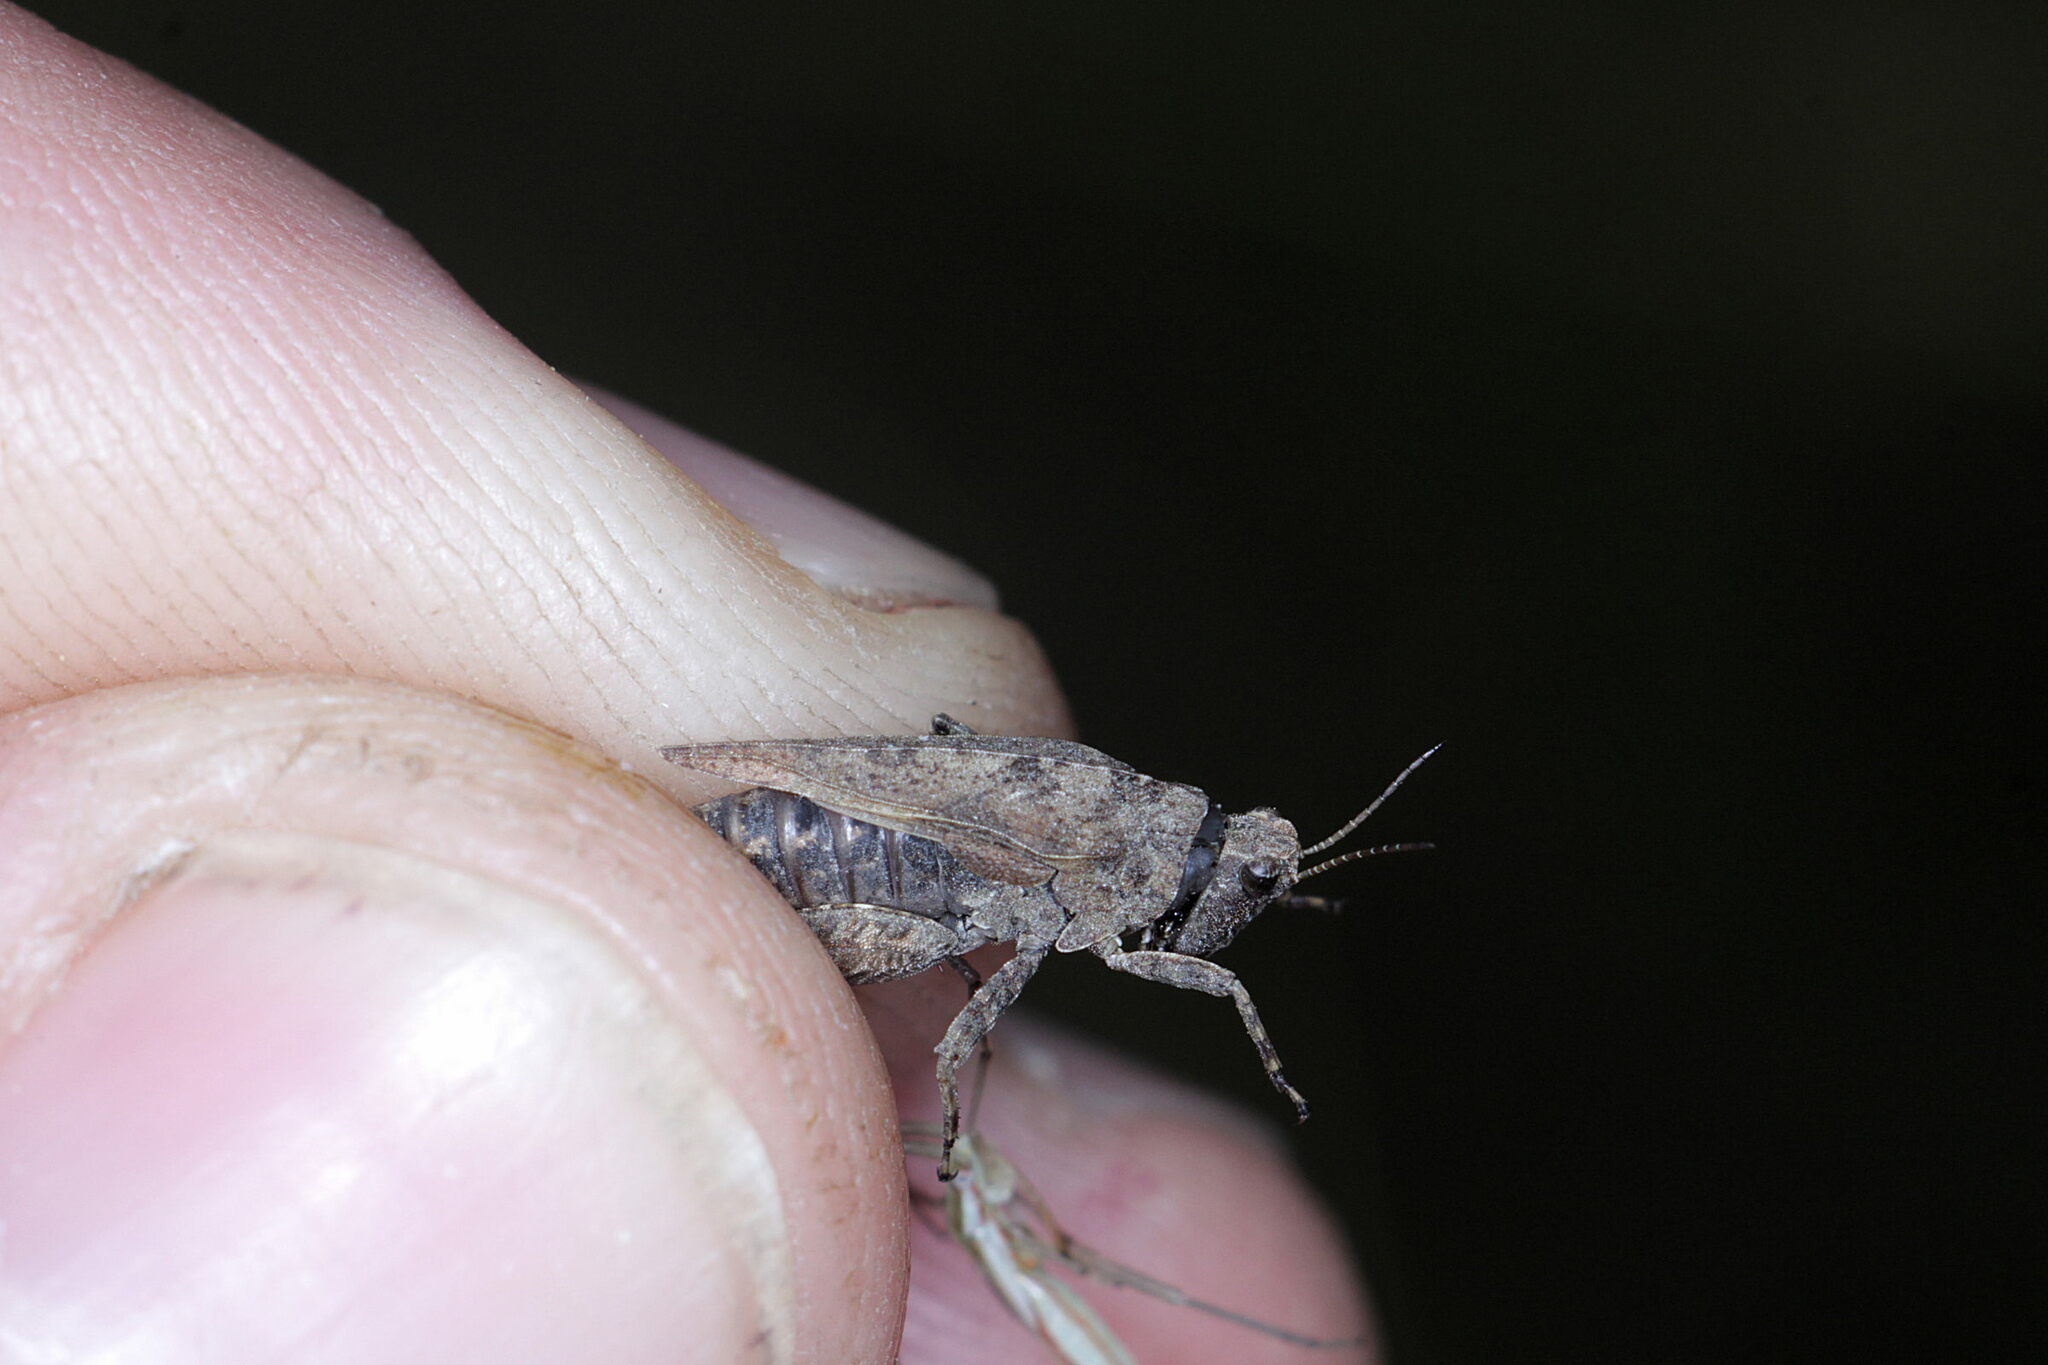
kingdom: Animalia
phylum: Arthropoda
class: Insecta
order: Orthoptera
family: Tetrigidae
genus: Tetrix
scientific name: Tetrix undulata
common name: Common groundhopper
